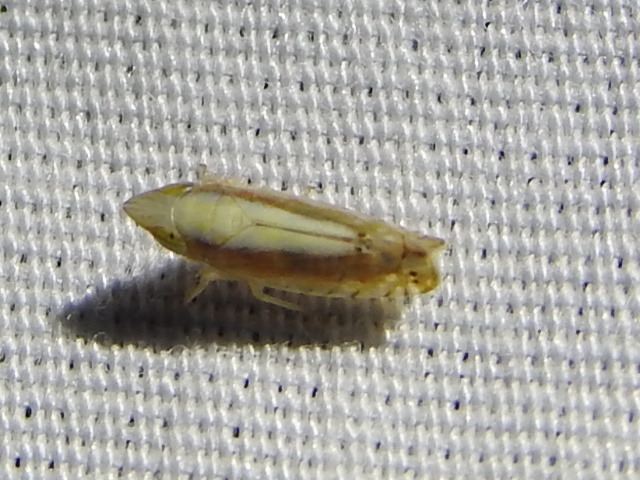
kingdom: Animalia
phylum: Arthropoda
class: Insecta
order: Hemiptera
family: Cicadellidae
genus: Scaphytopius
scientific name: Scaphytopius elegans
